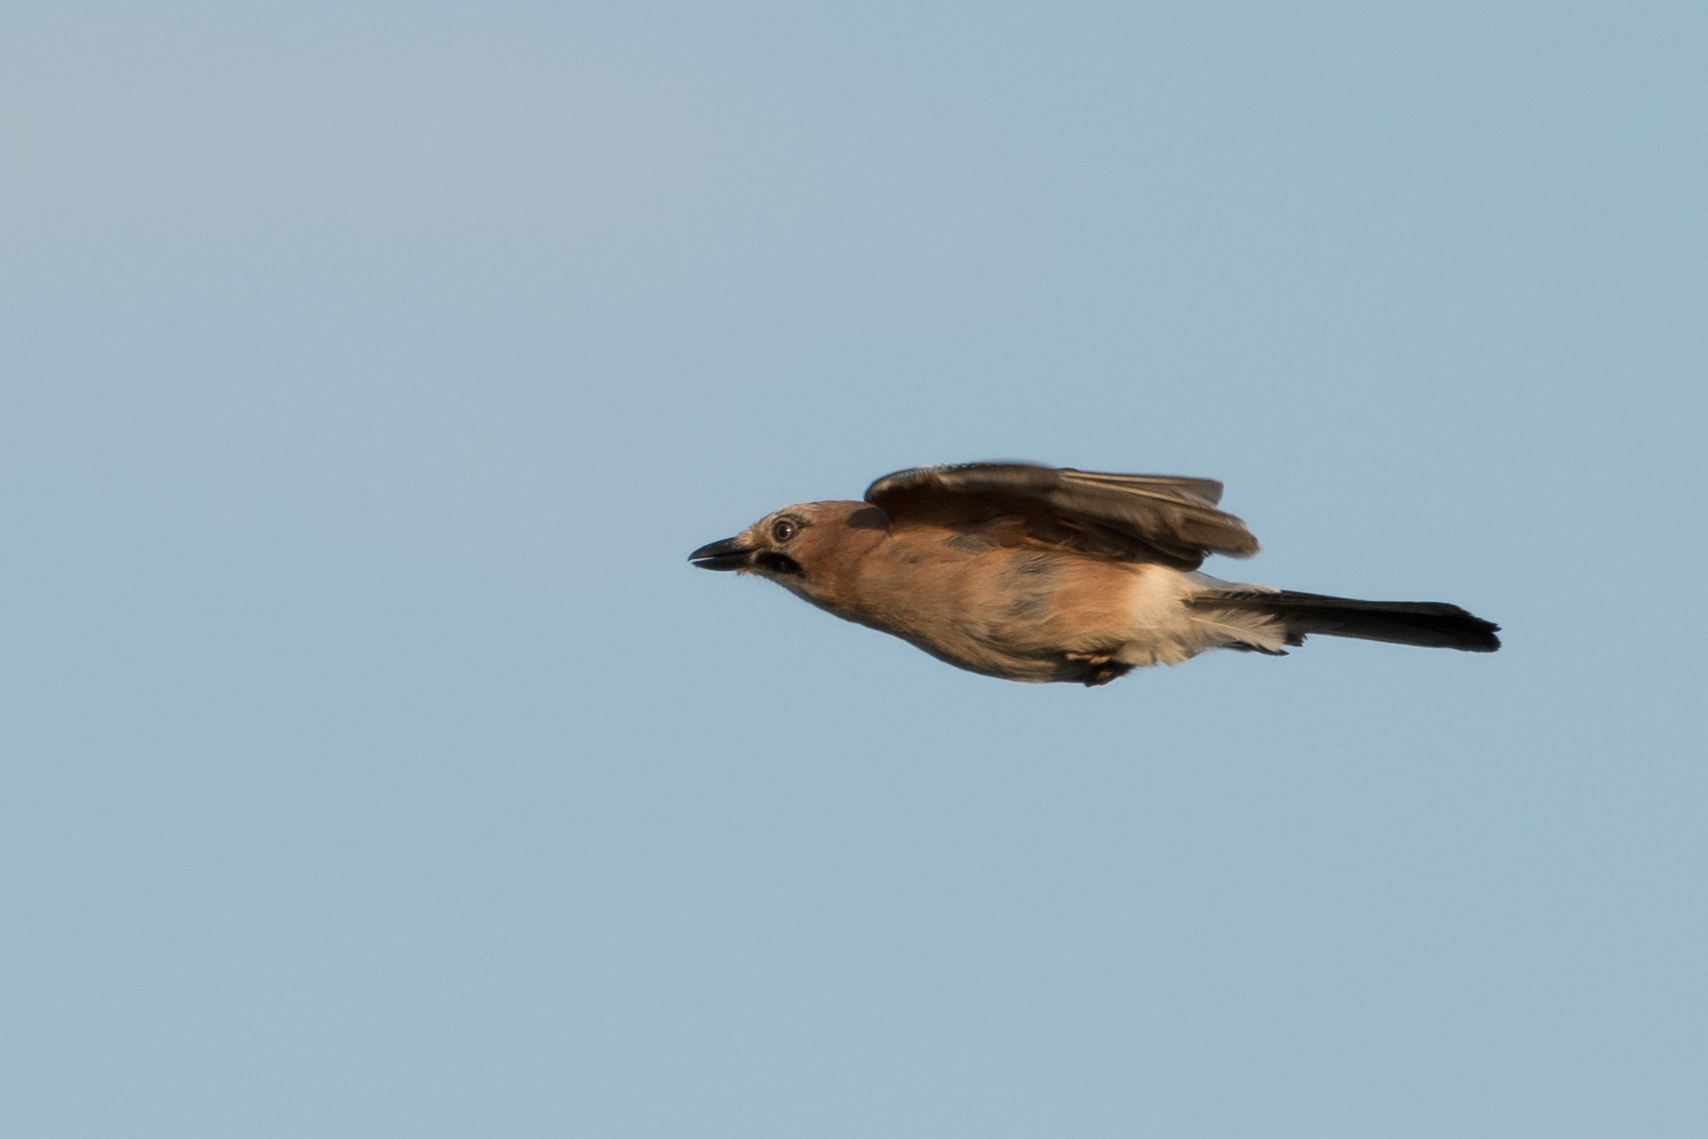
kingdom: Animalia
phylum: Chordata
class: Aves
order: Passeriformes
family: Corvidae
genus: Garrulus
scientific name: Garrulus glandarius
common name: Eurasian jay
